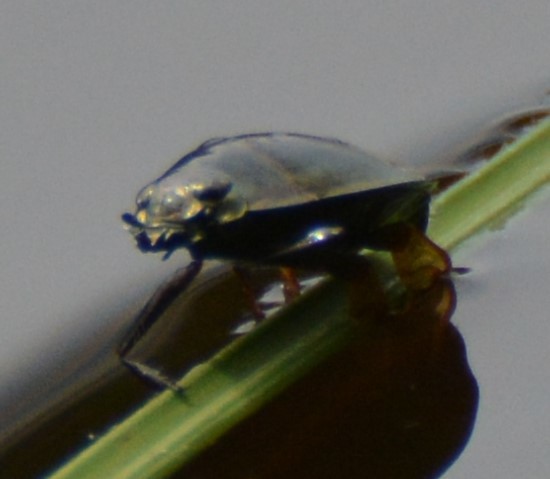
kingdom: Animalia
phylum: Arthropoda
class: Insecta
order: Coleoptera
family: Gyrinidae
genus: Dineutus
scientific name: Dineutus
